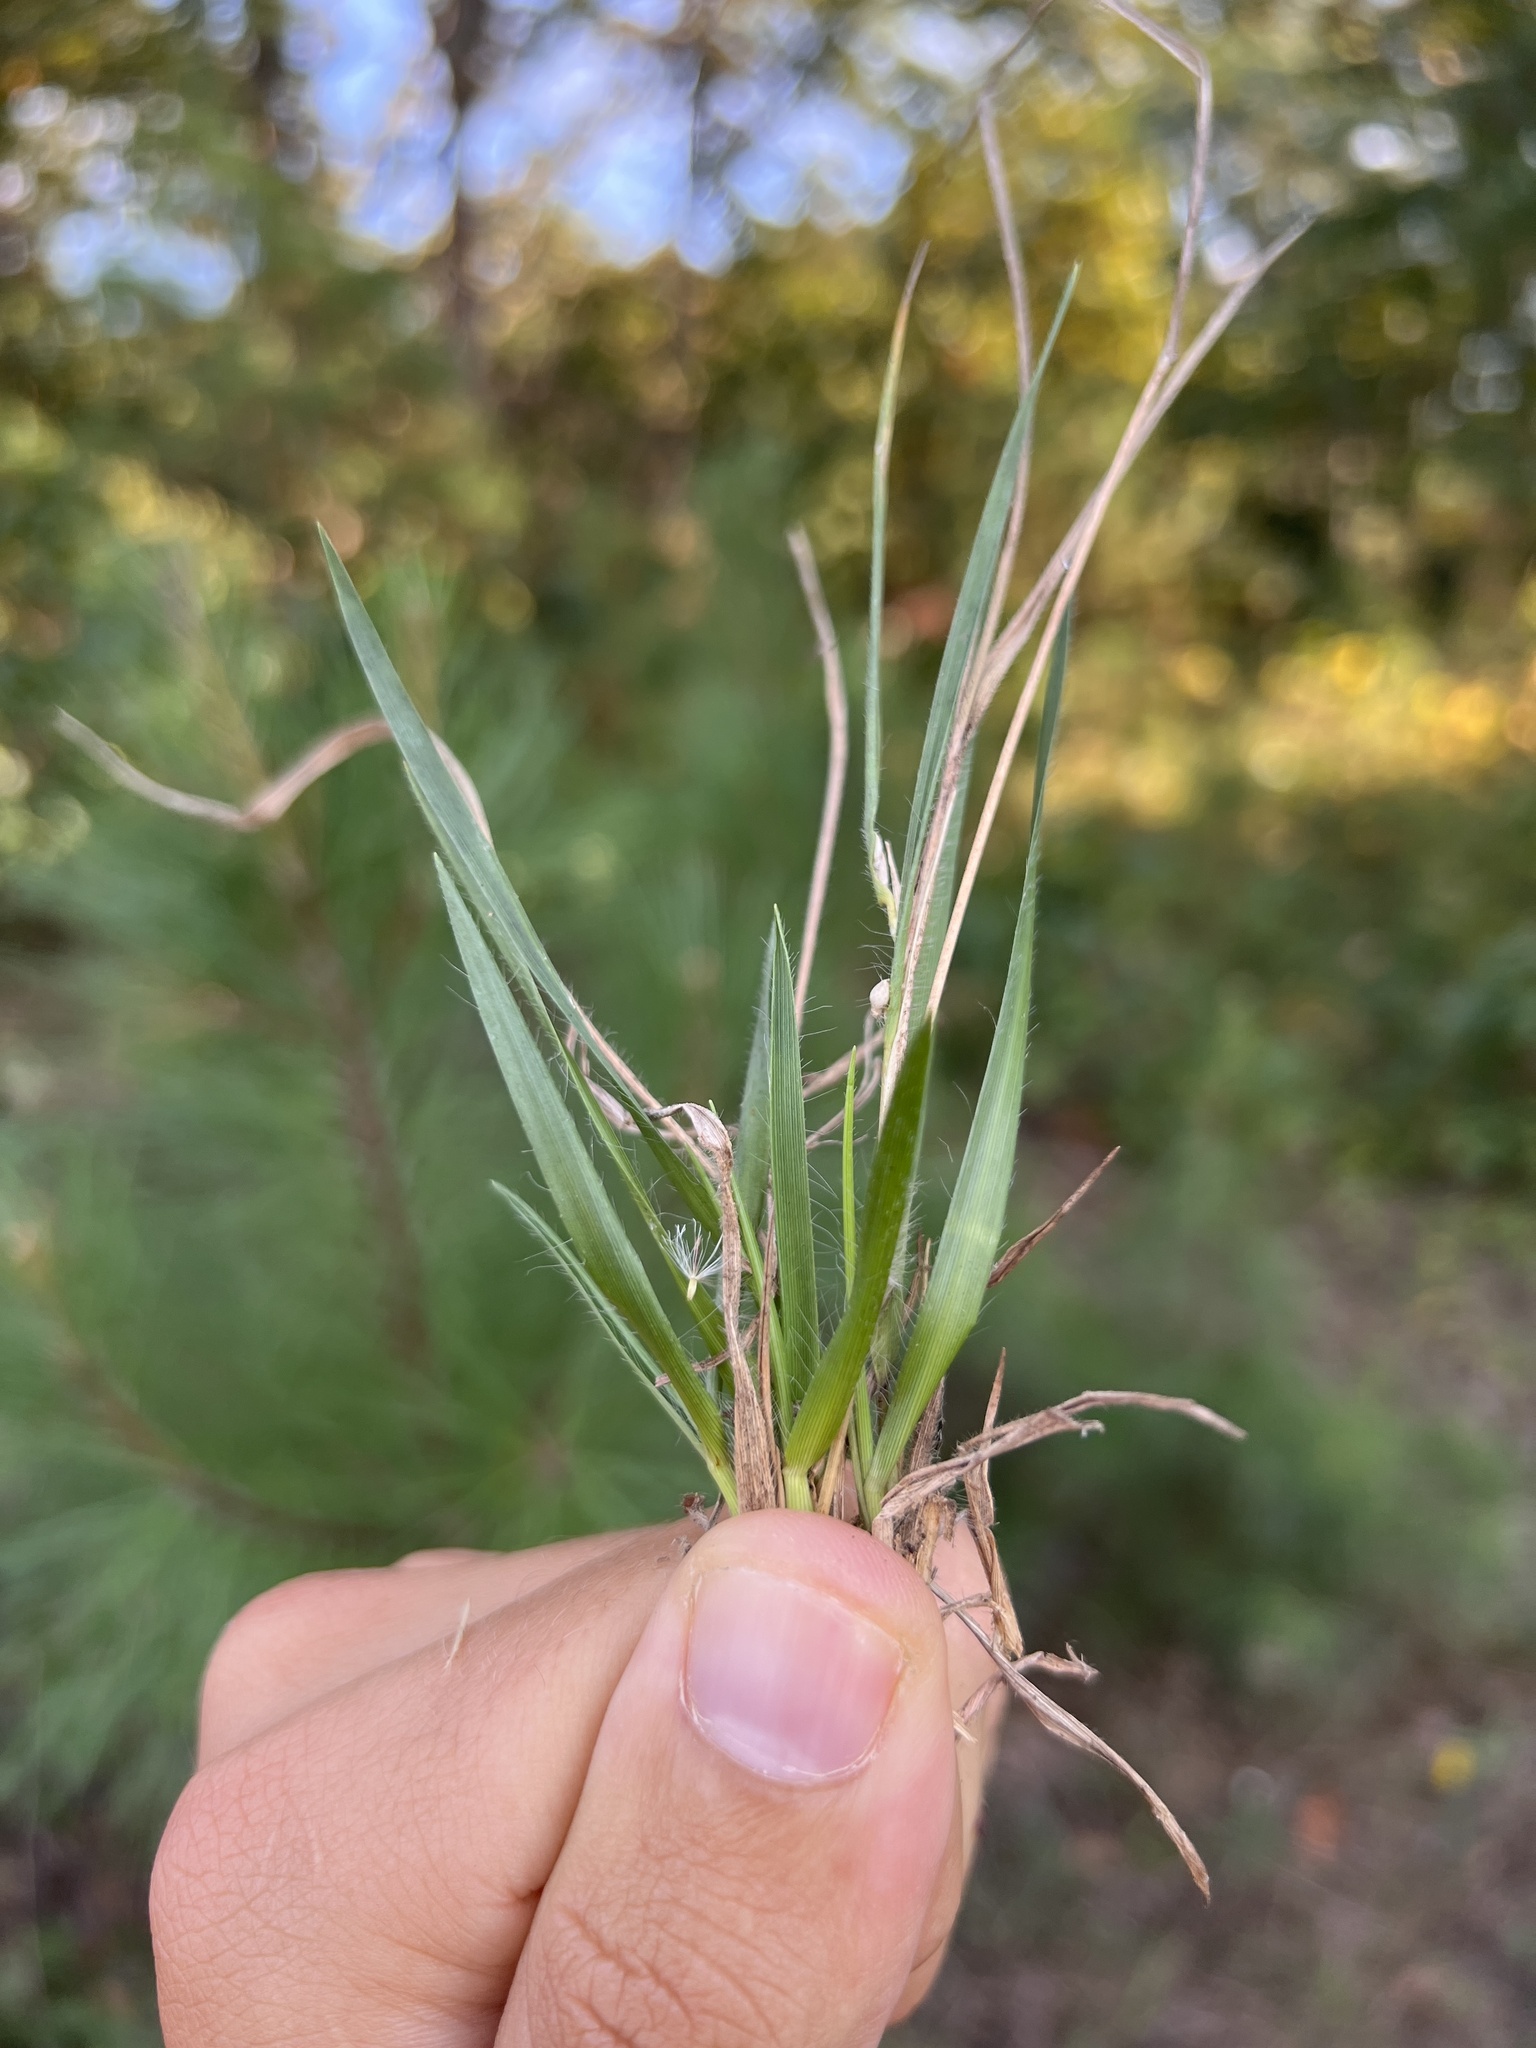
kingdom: Plantae
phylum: Tracheophyta
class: Liliopsida
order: Poales
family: Poaceae
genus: Dichanthelium
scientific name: Dichanthelium depauperatum
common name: Depauperate panicgrass
